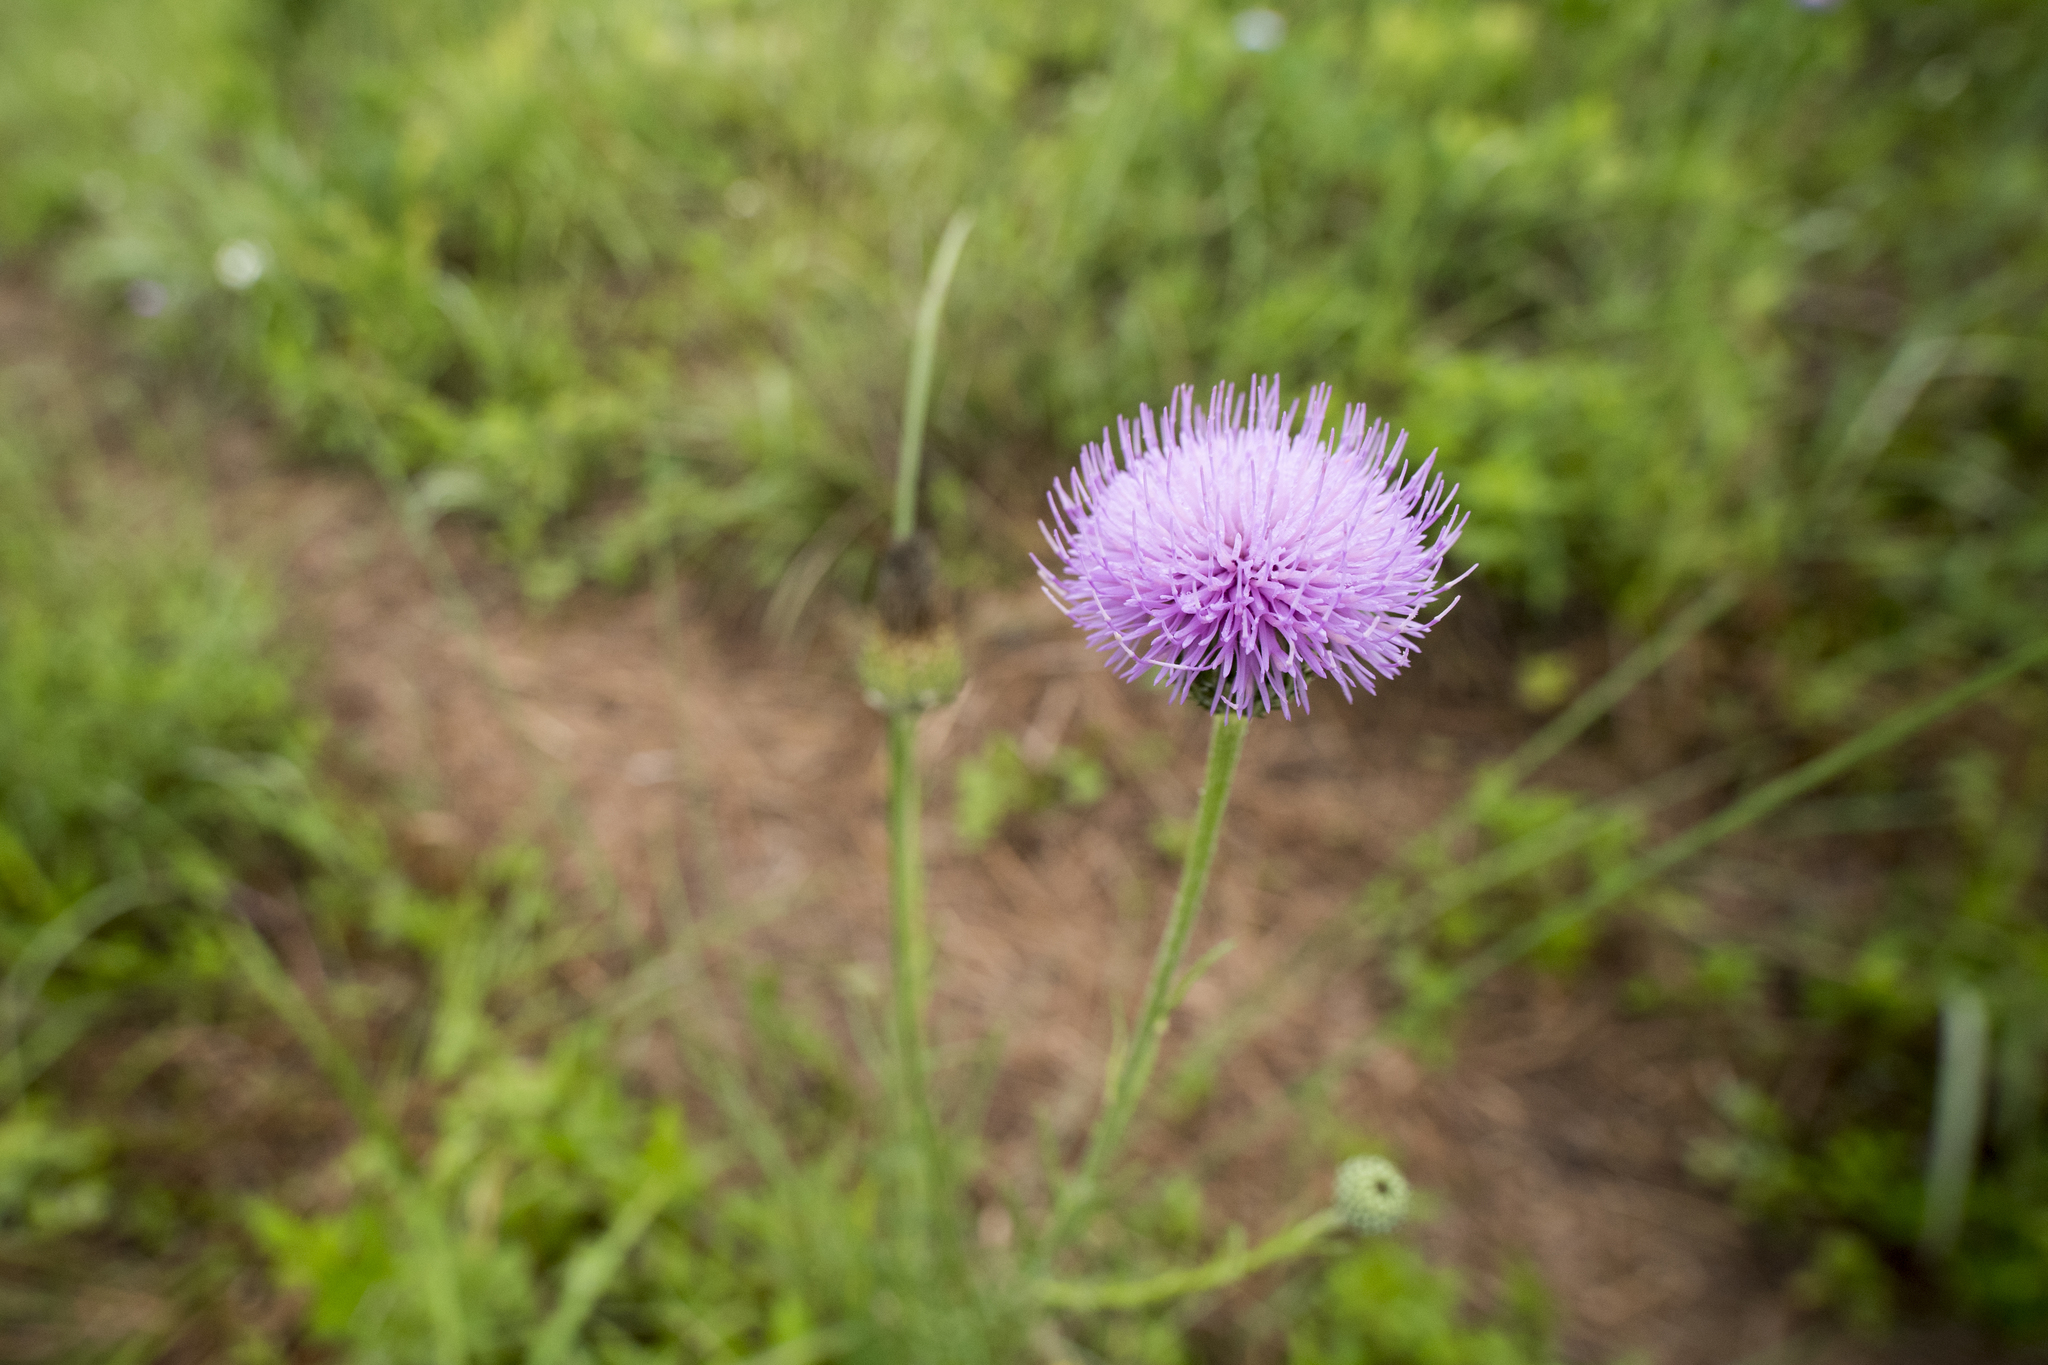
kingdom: Plantae
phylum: Tracheophyta
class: Magnoliopsida
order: Asterales
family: Asteraceae
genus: Cirsium
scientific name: Cirsium lineare
